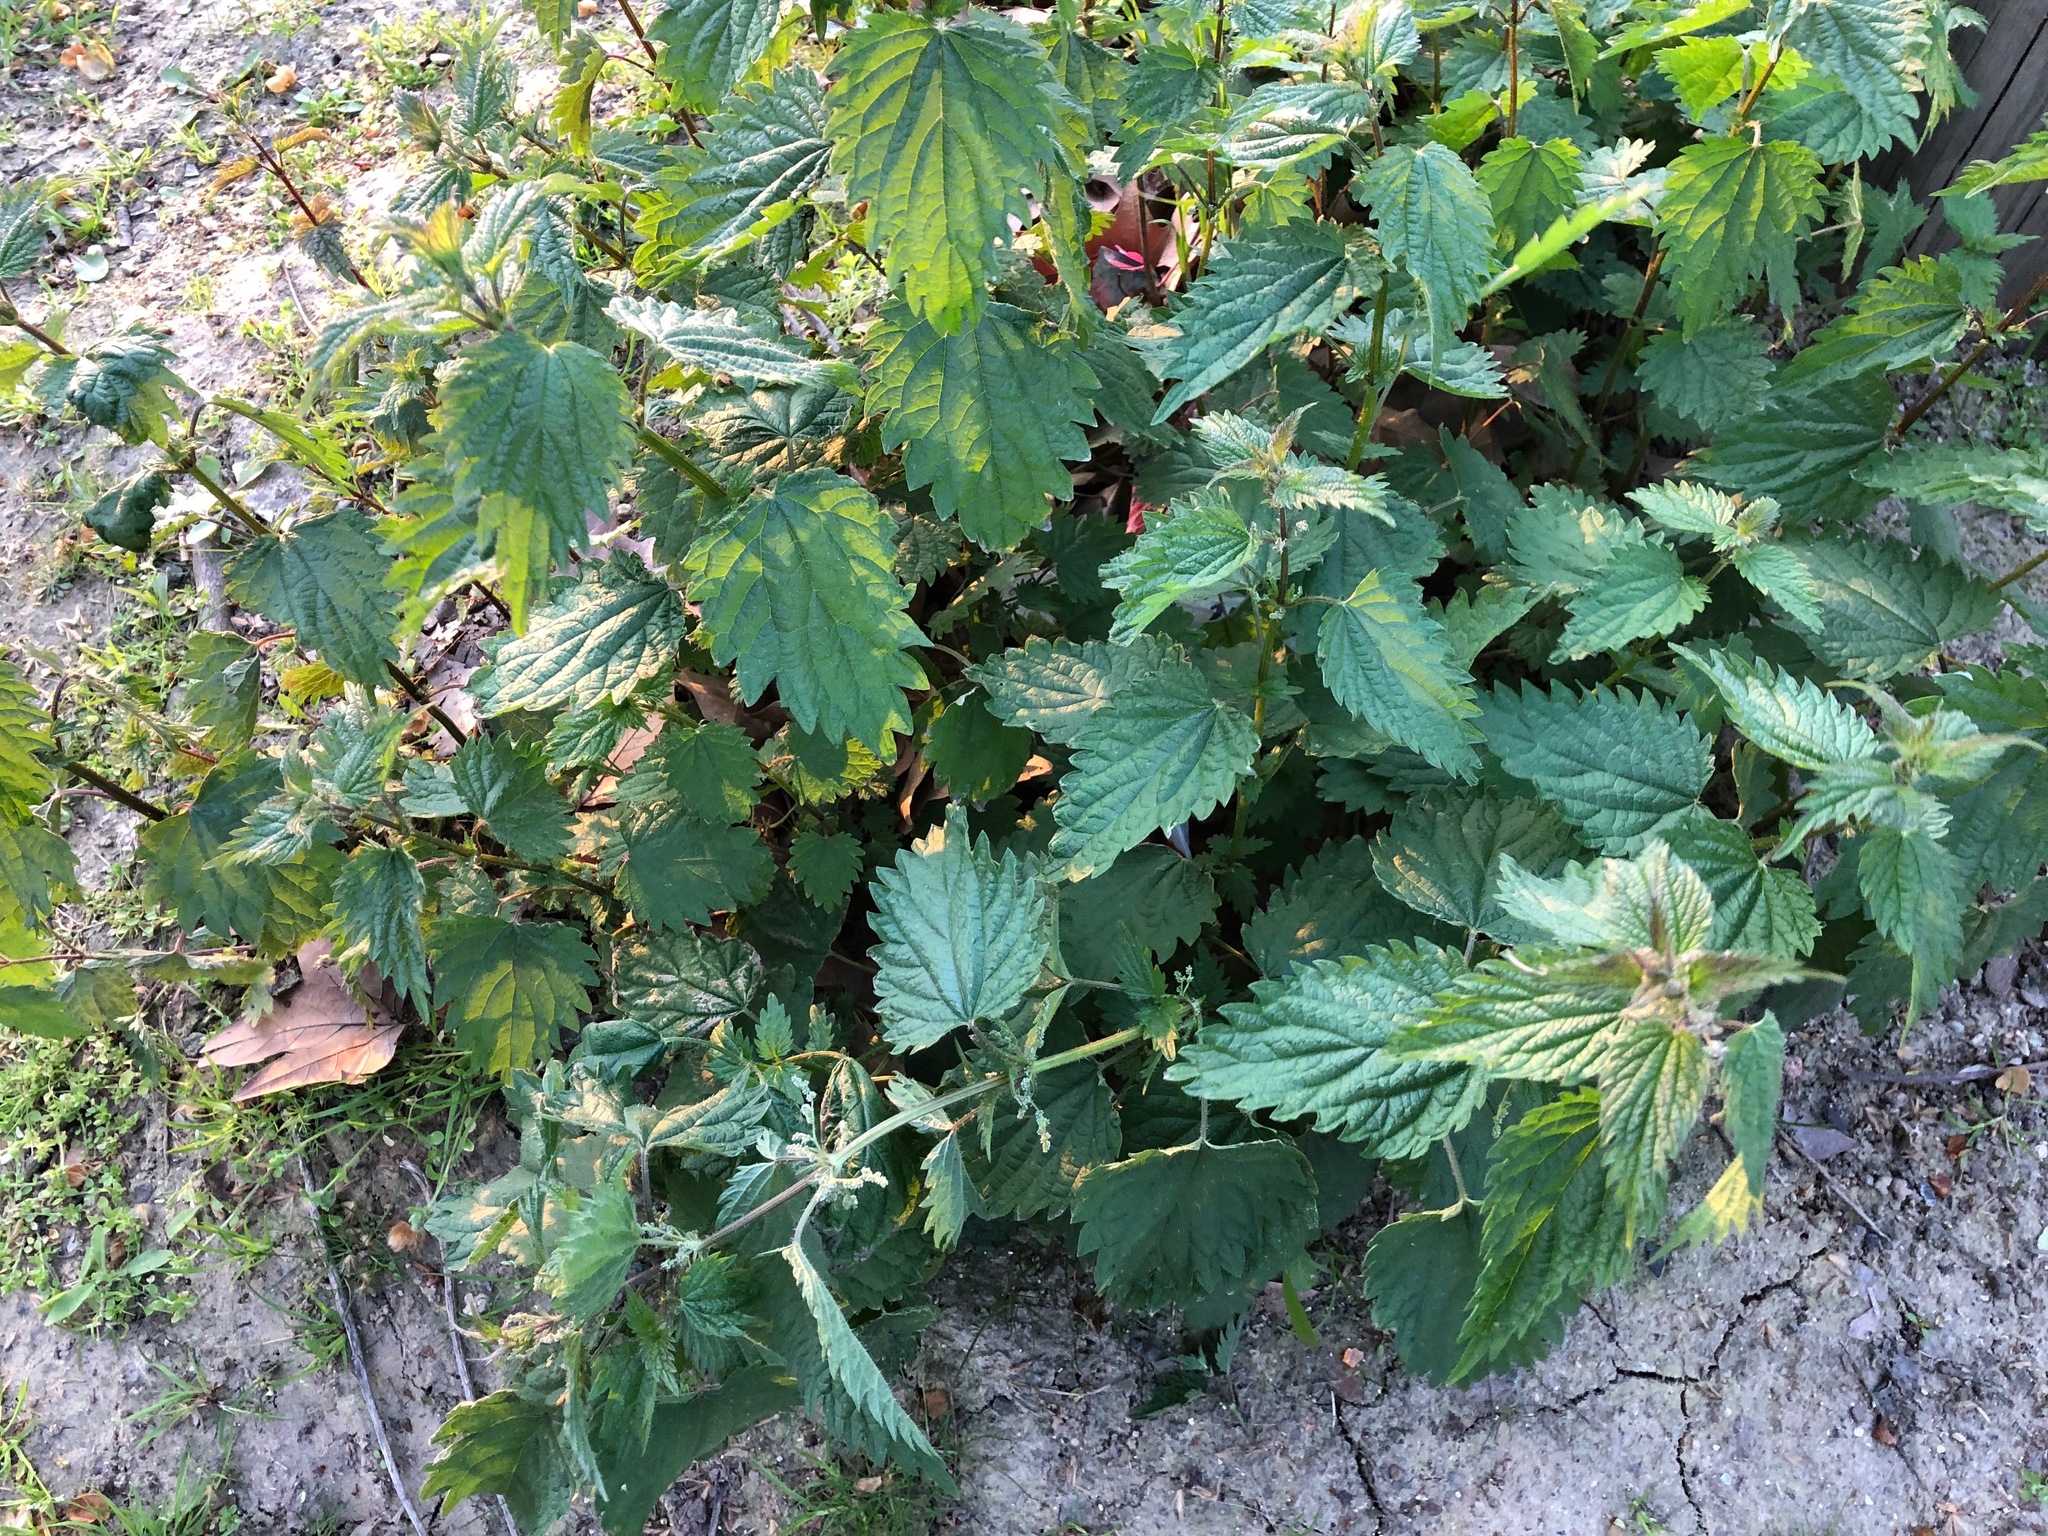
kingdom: Plantae
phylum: Tracheophyta
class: Magnoliopsida
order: Rosales
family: Urticaceae
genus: Urtica
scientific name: Urtica dioica
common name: Common nettle
